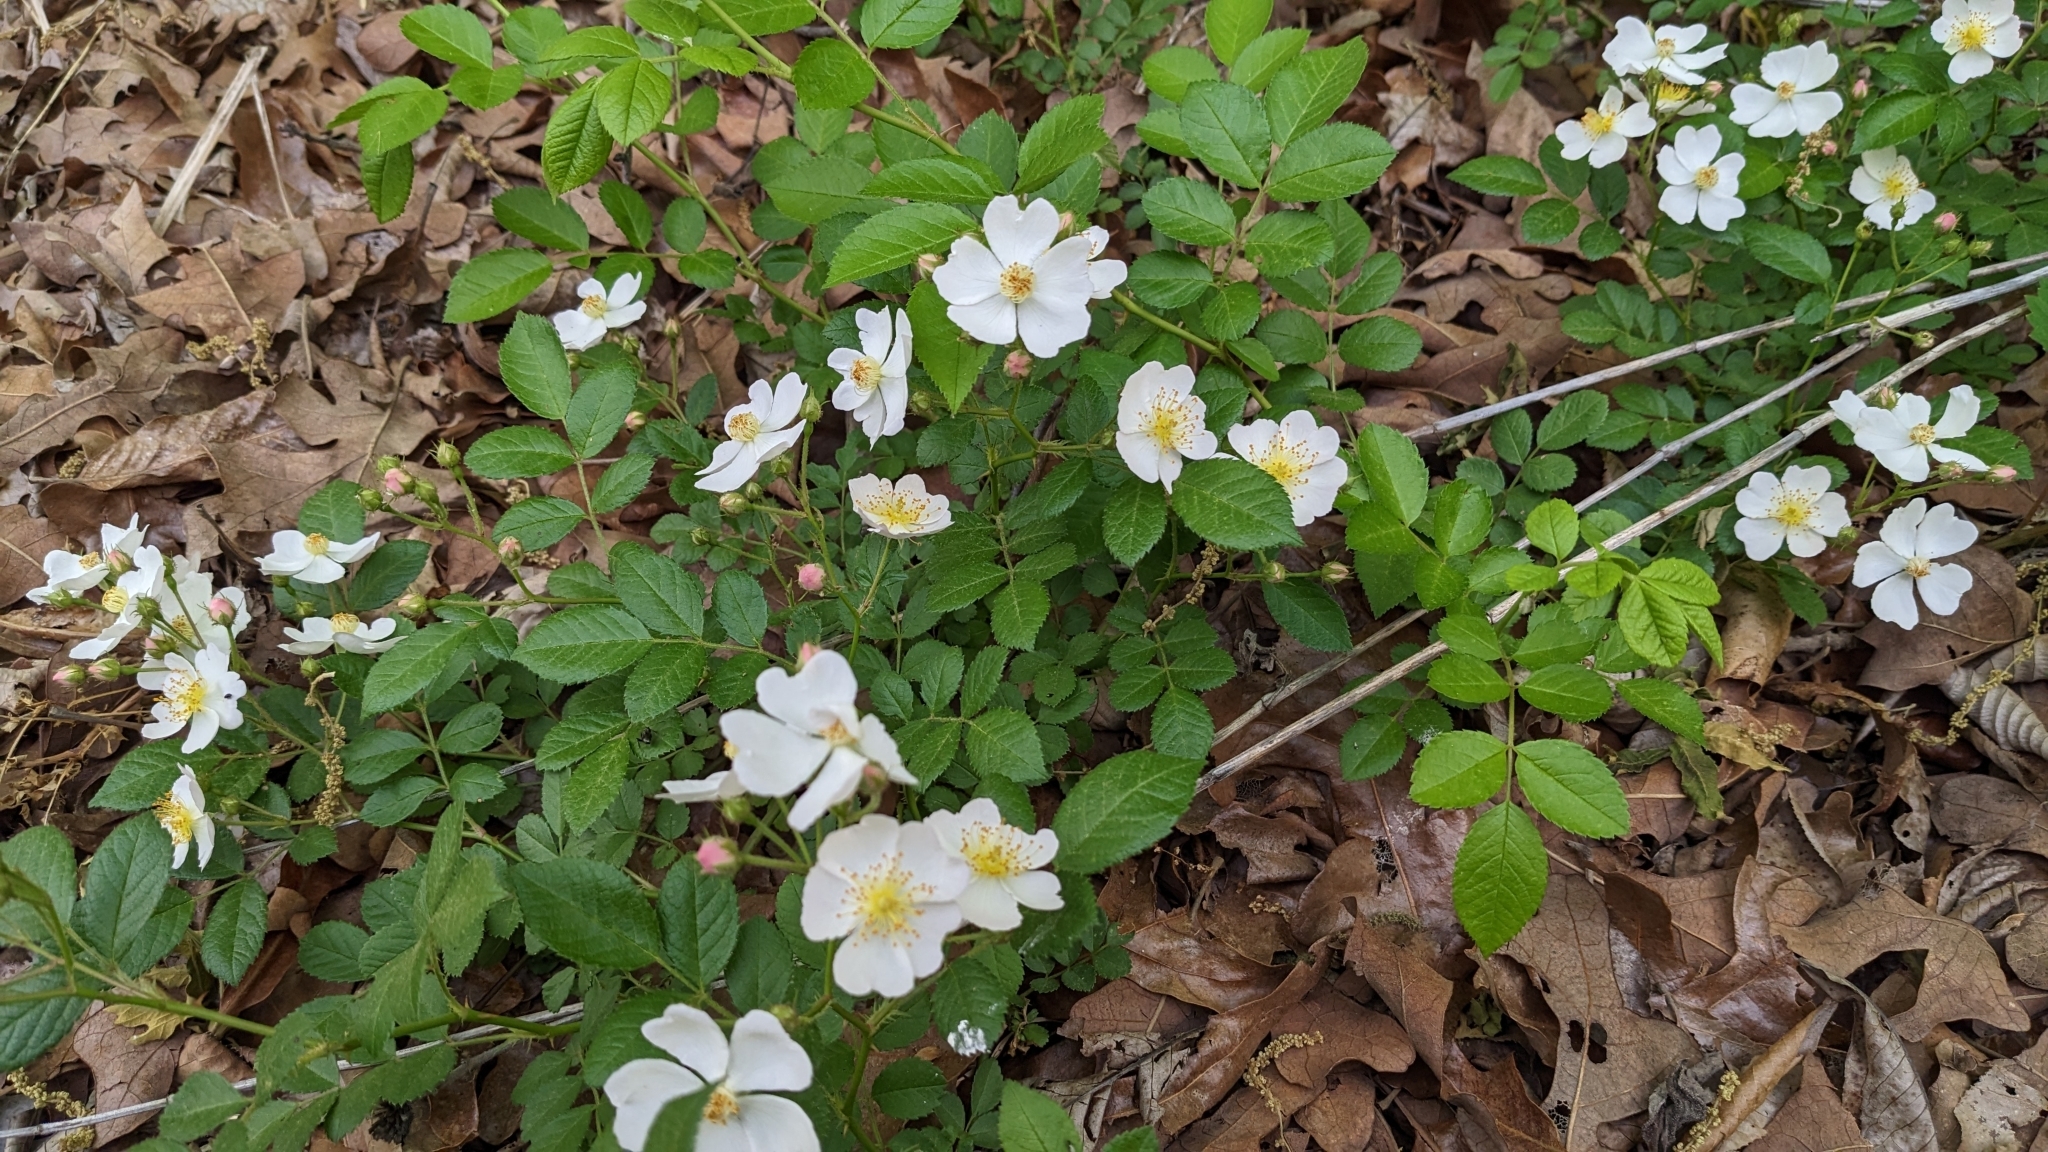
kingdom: Plantae
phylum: Tracheophyta
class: Magnoliopsida
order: Rosales
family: Rosaceae
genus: Rosa
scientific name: Rosa multiflora
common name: Multiflora rose
